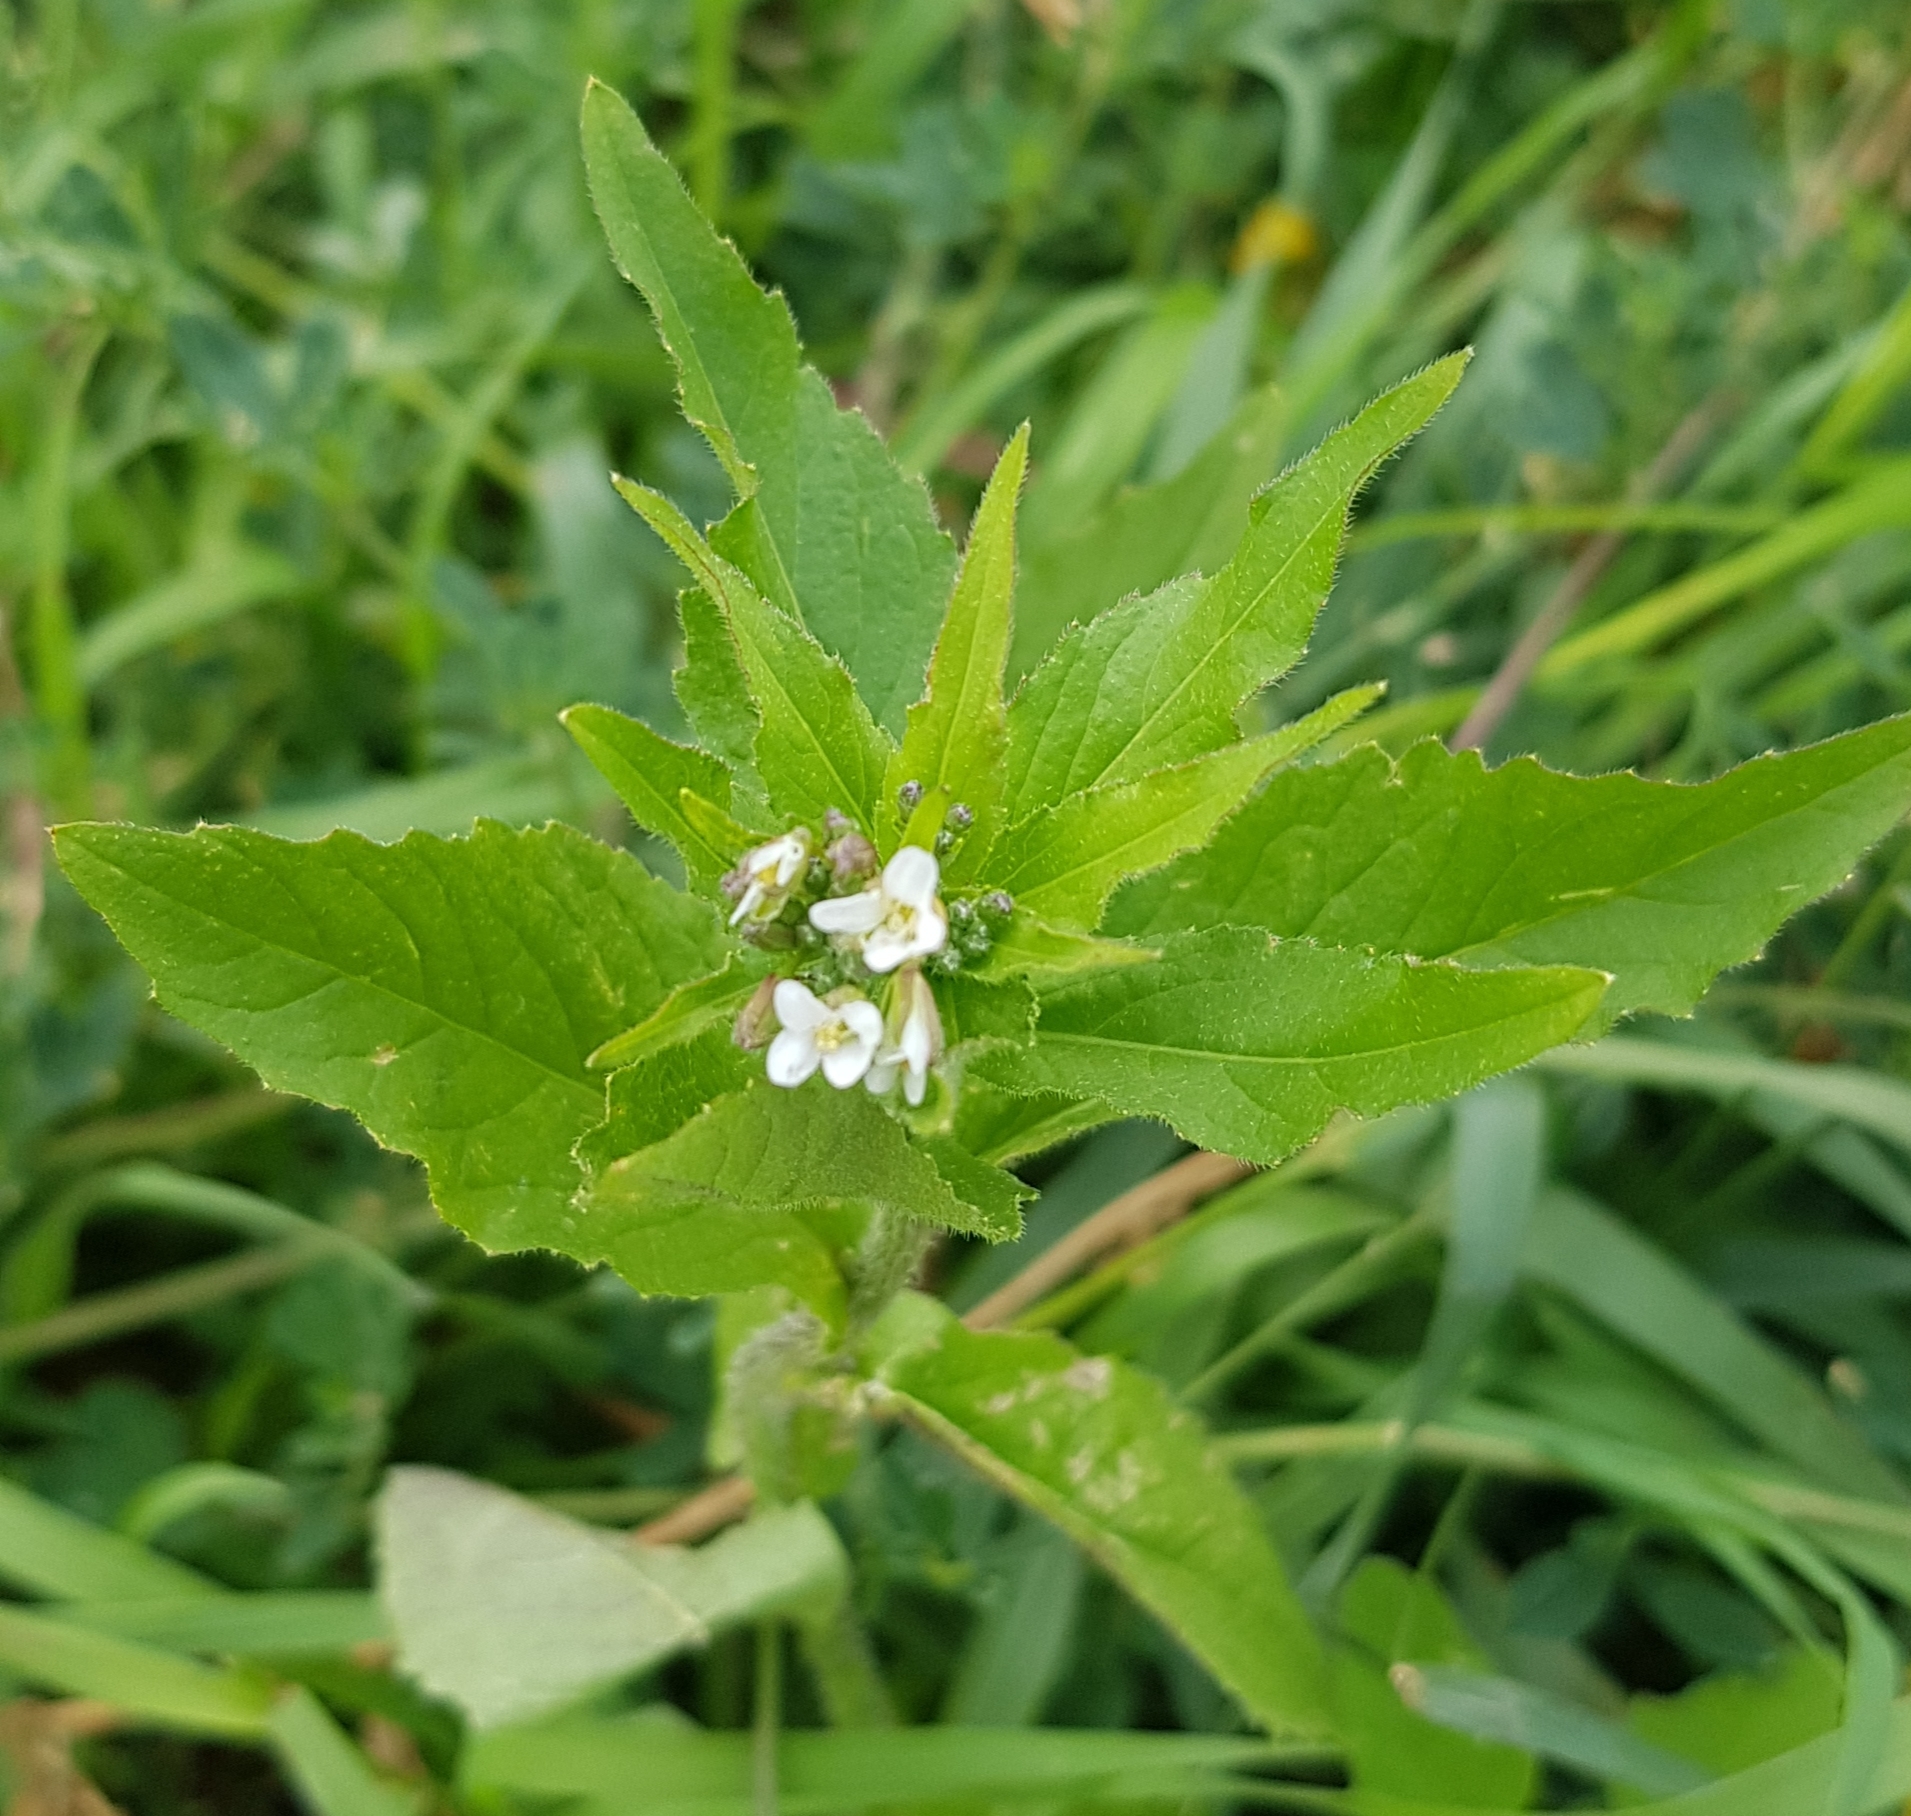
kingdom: Plantae
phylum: Tracheophyta
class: Magnoliopsida
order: Brassicales
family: Brassicaceae
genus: Catolobus
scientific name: Catolobus pendulus
